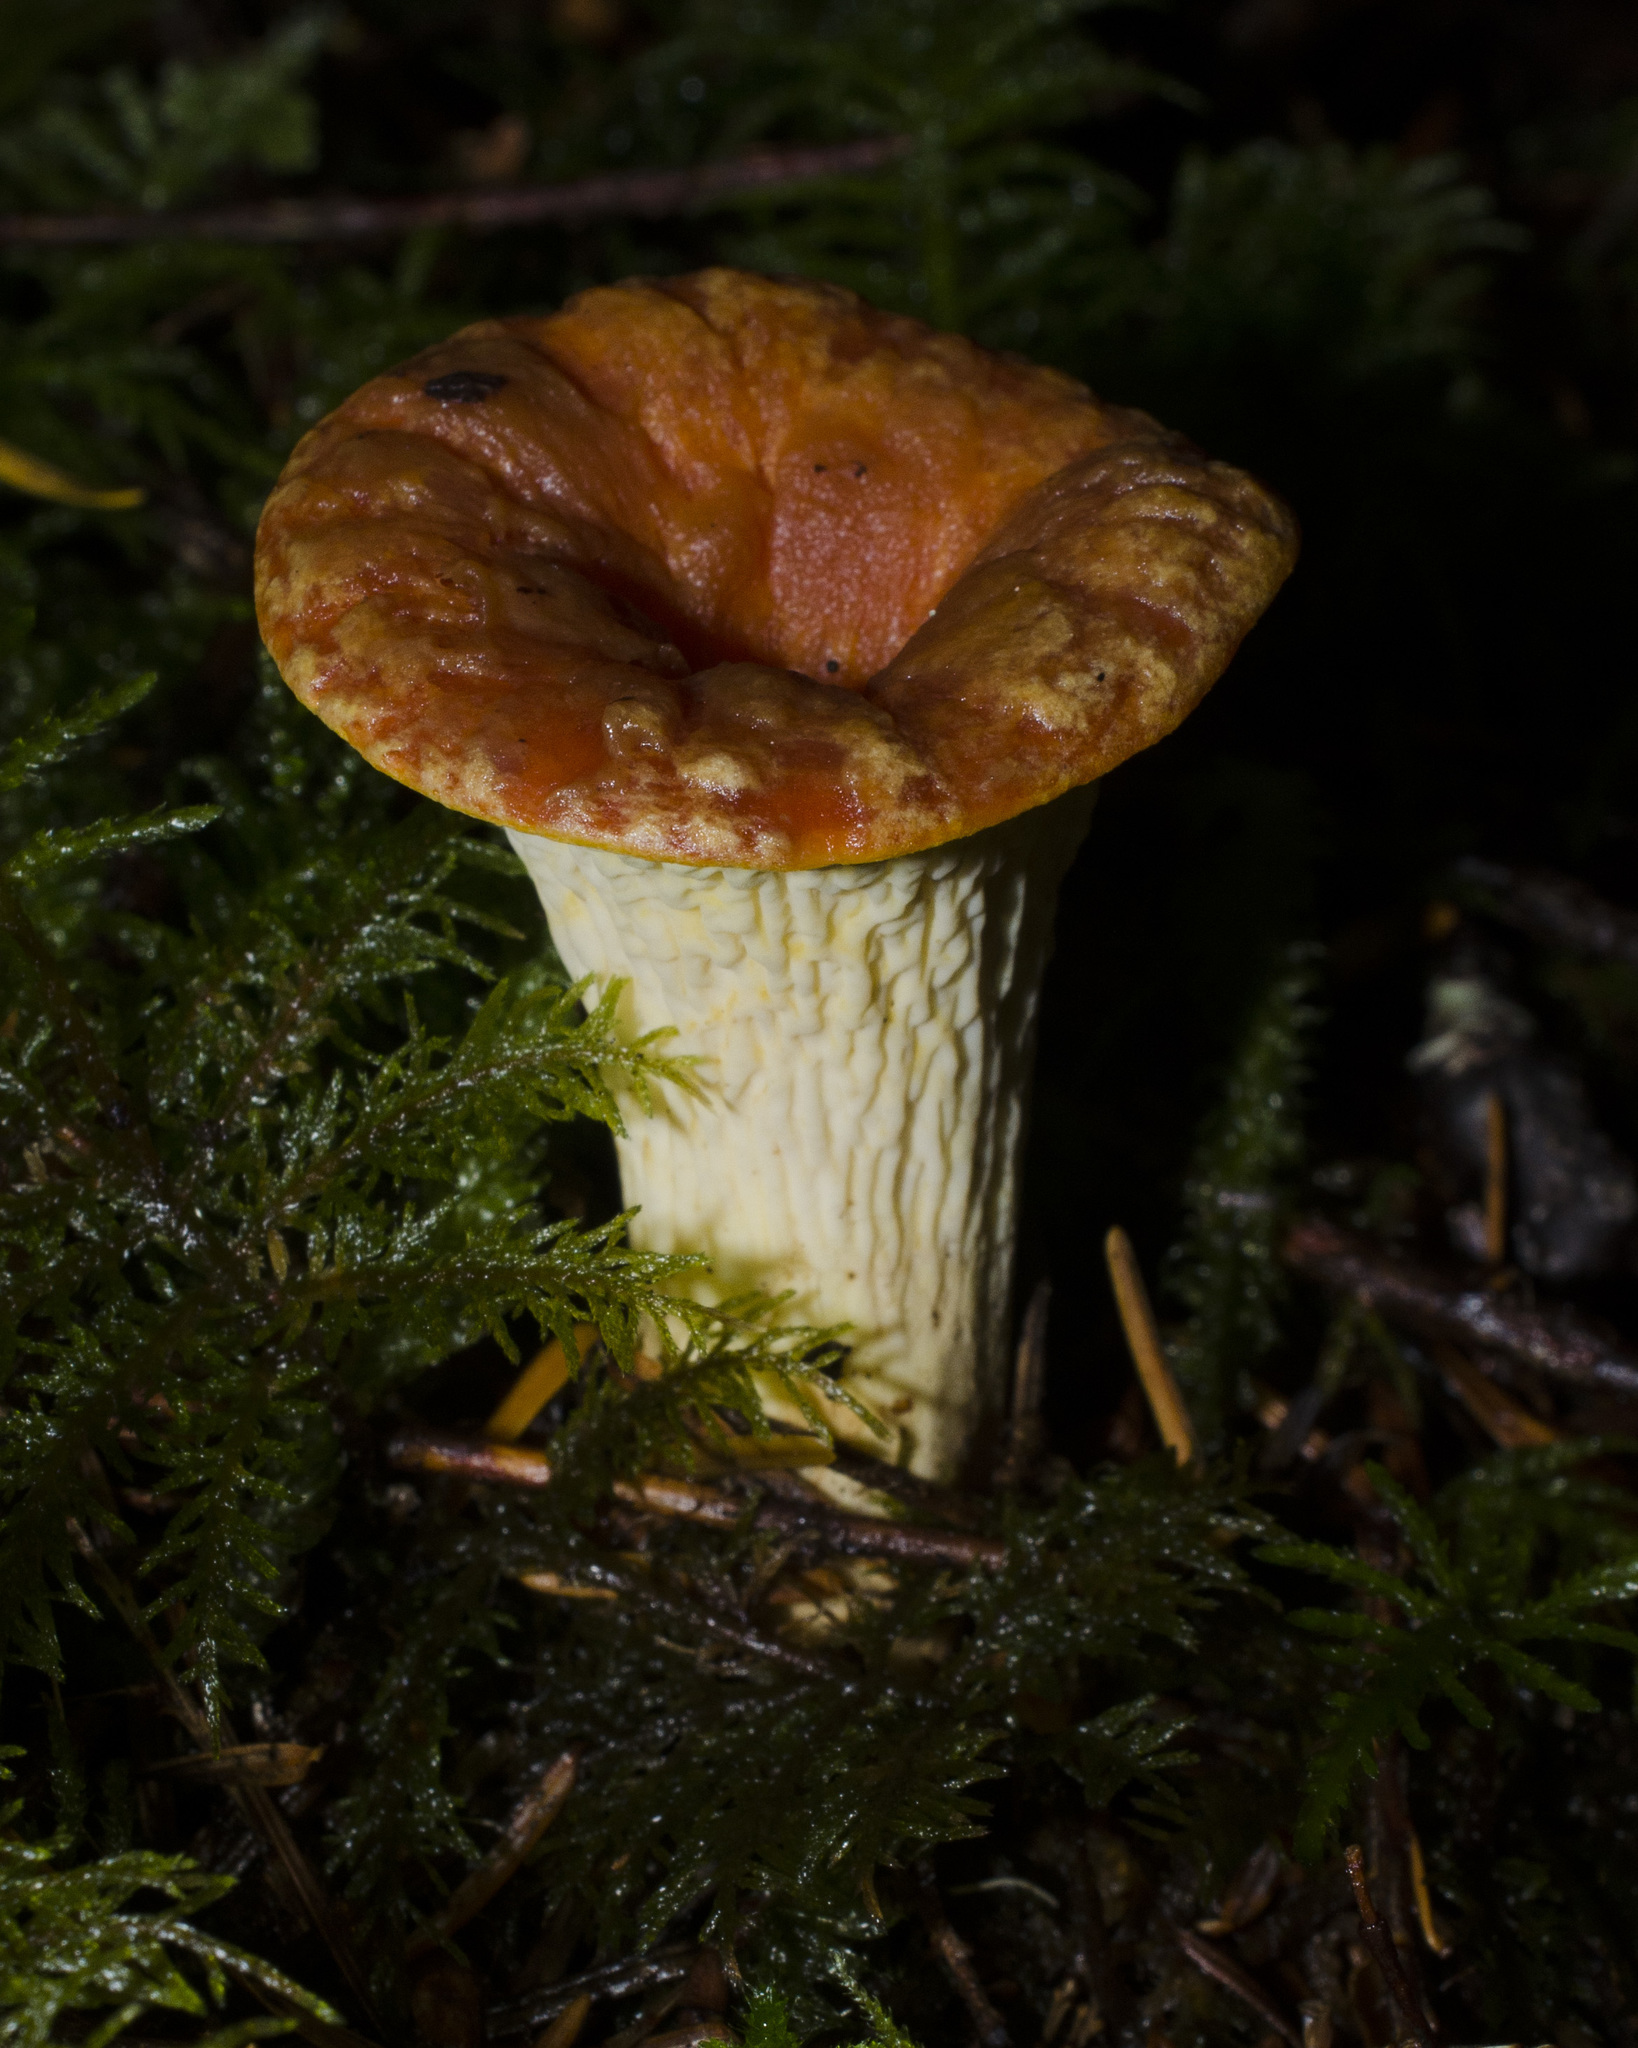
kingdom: Fungi
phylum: Basidiomycota
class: Agaricomycetes
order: Gomphales
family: Gomphaceae
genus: Turbinellus
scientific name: Turbinellus floccosus
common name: Scaly chanterelle
